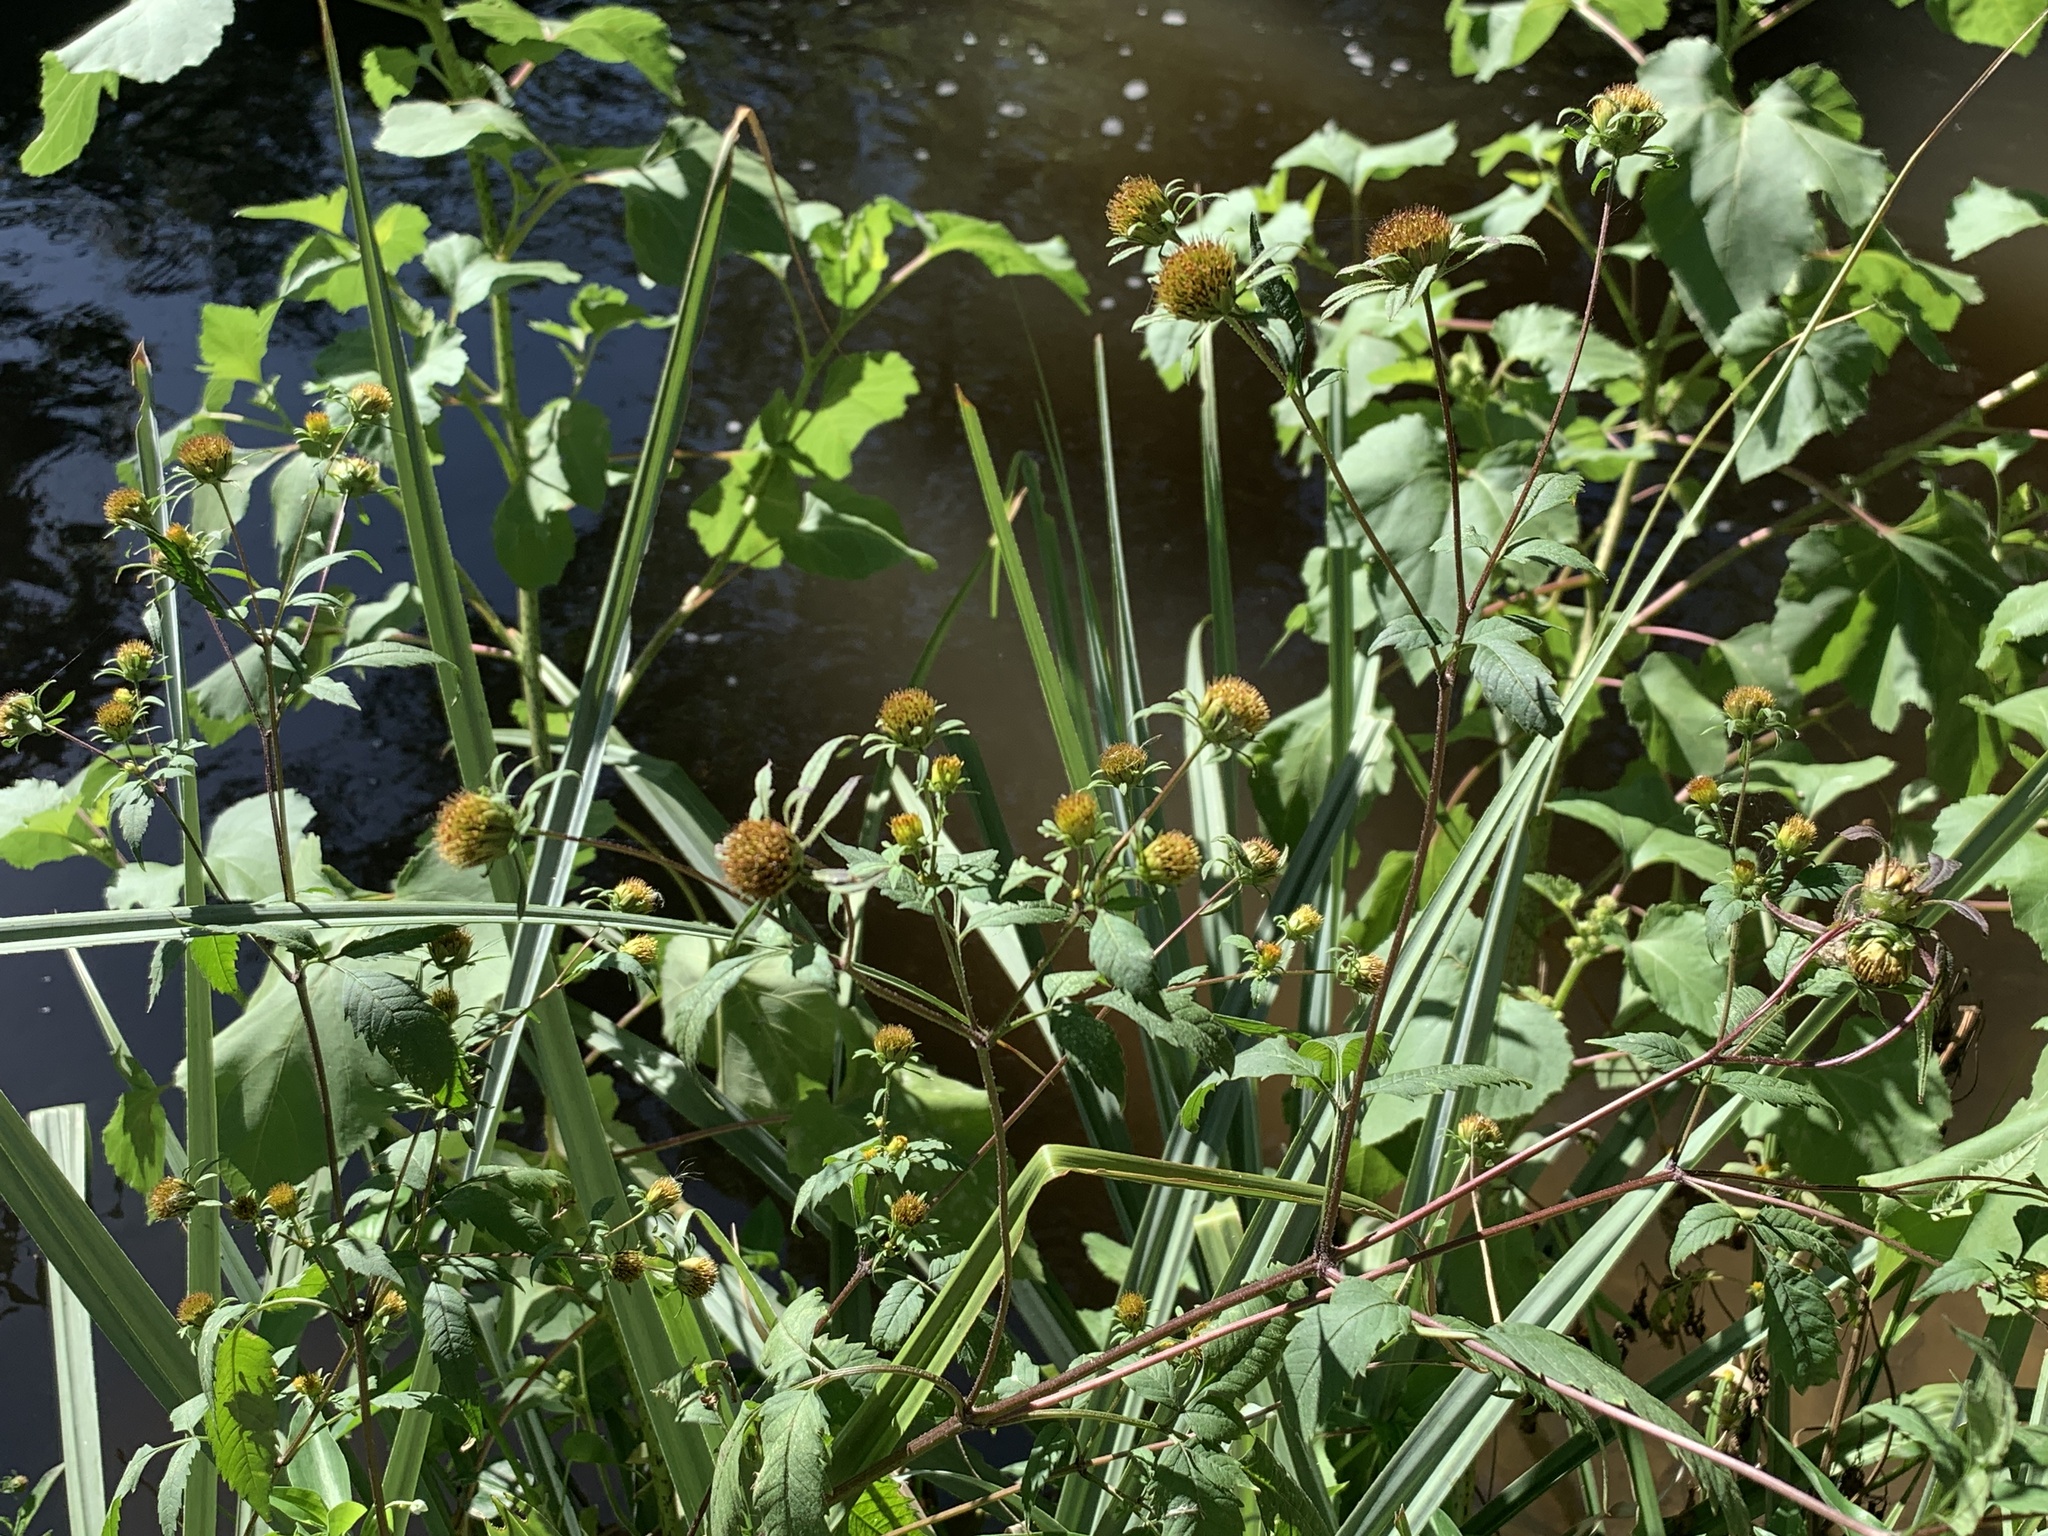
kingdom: Plantae
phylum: Tracheophyta
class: Magnoliopsida
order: Asterales
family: Asteraceae
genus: Bidens
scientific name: Bidens frondosa
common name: Beggarticks
